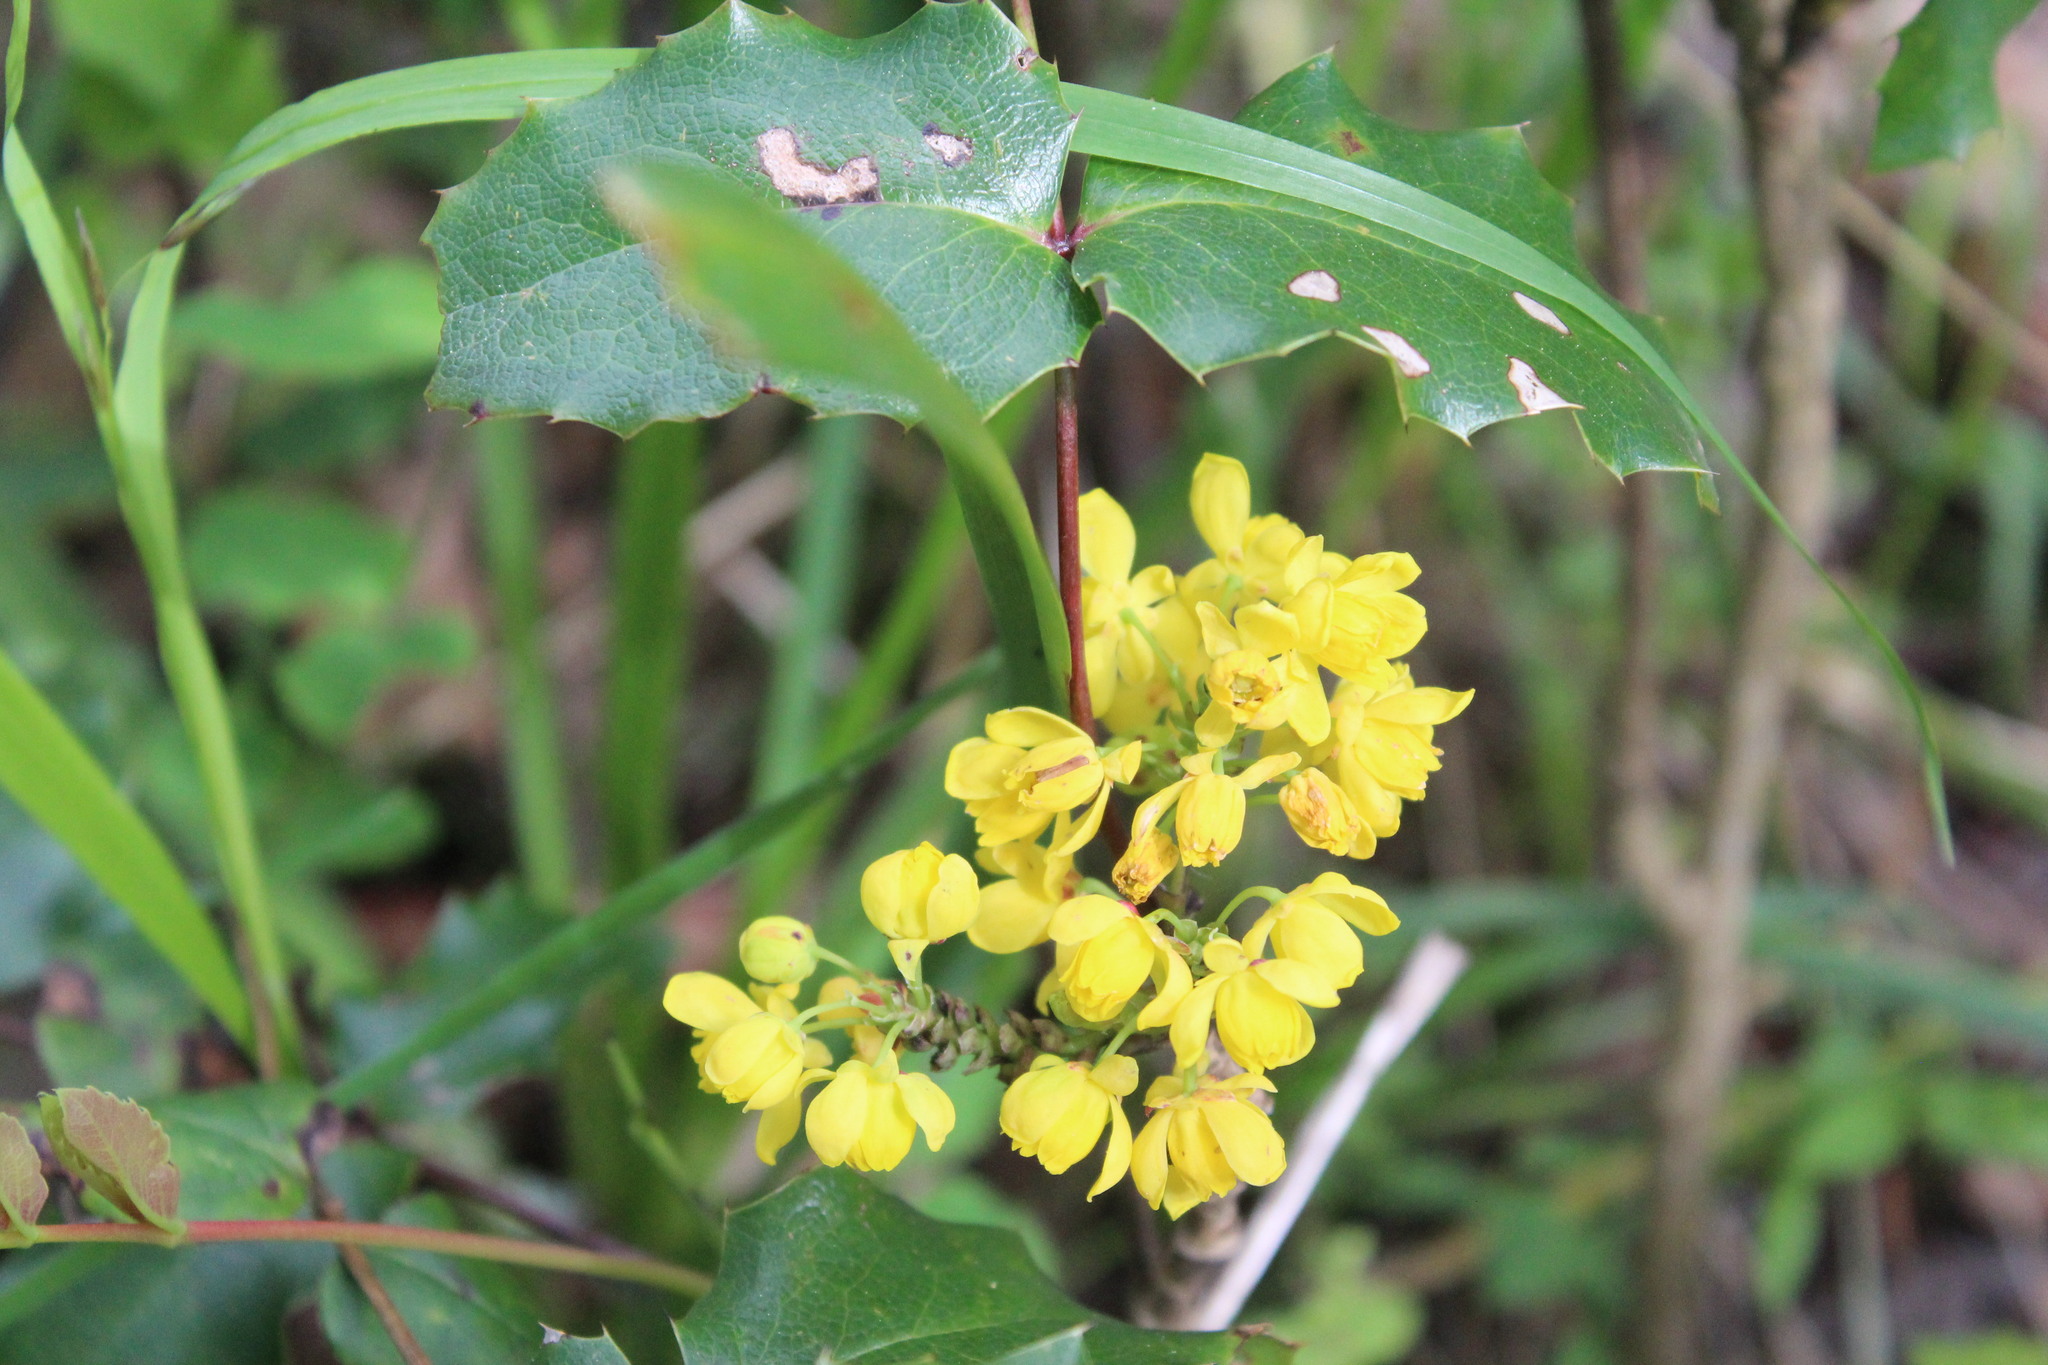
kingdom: Plantae
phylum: Tracheophyta
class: Magnoliopsida
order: Ranunculales
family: Berberidaceae
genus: Mahonia
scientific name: Mahonia aquifolium
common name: Oregon-grape
